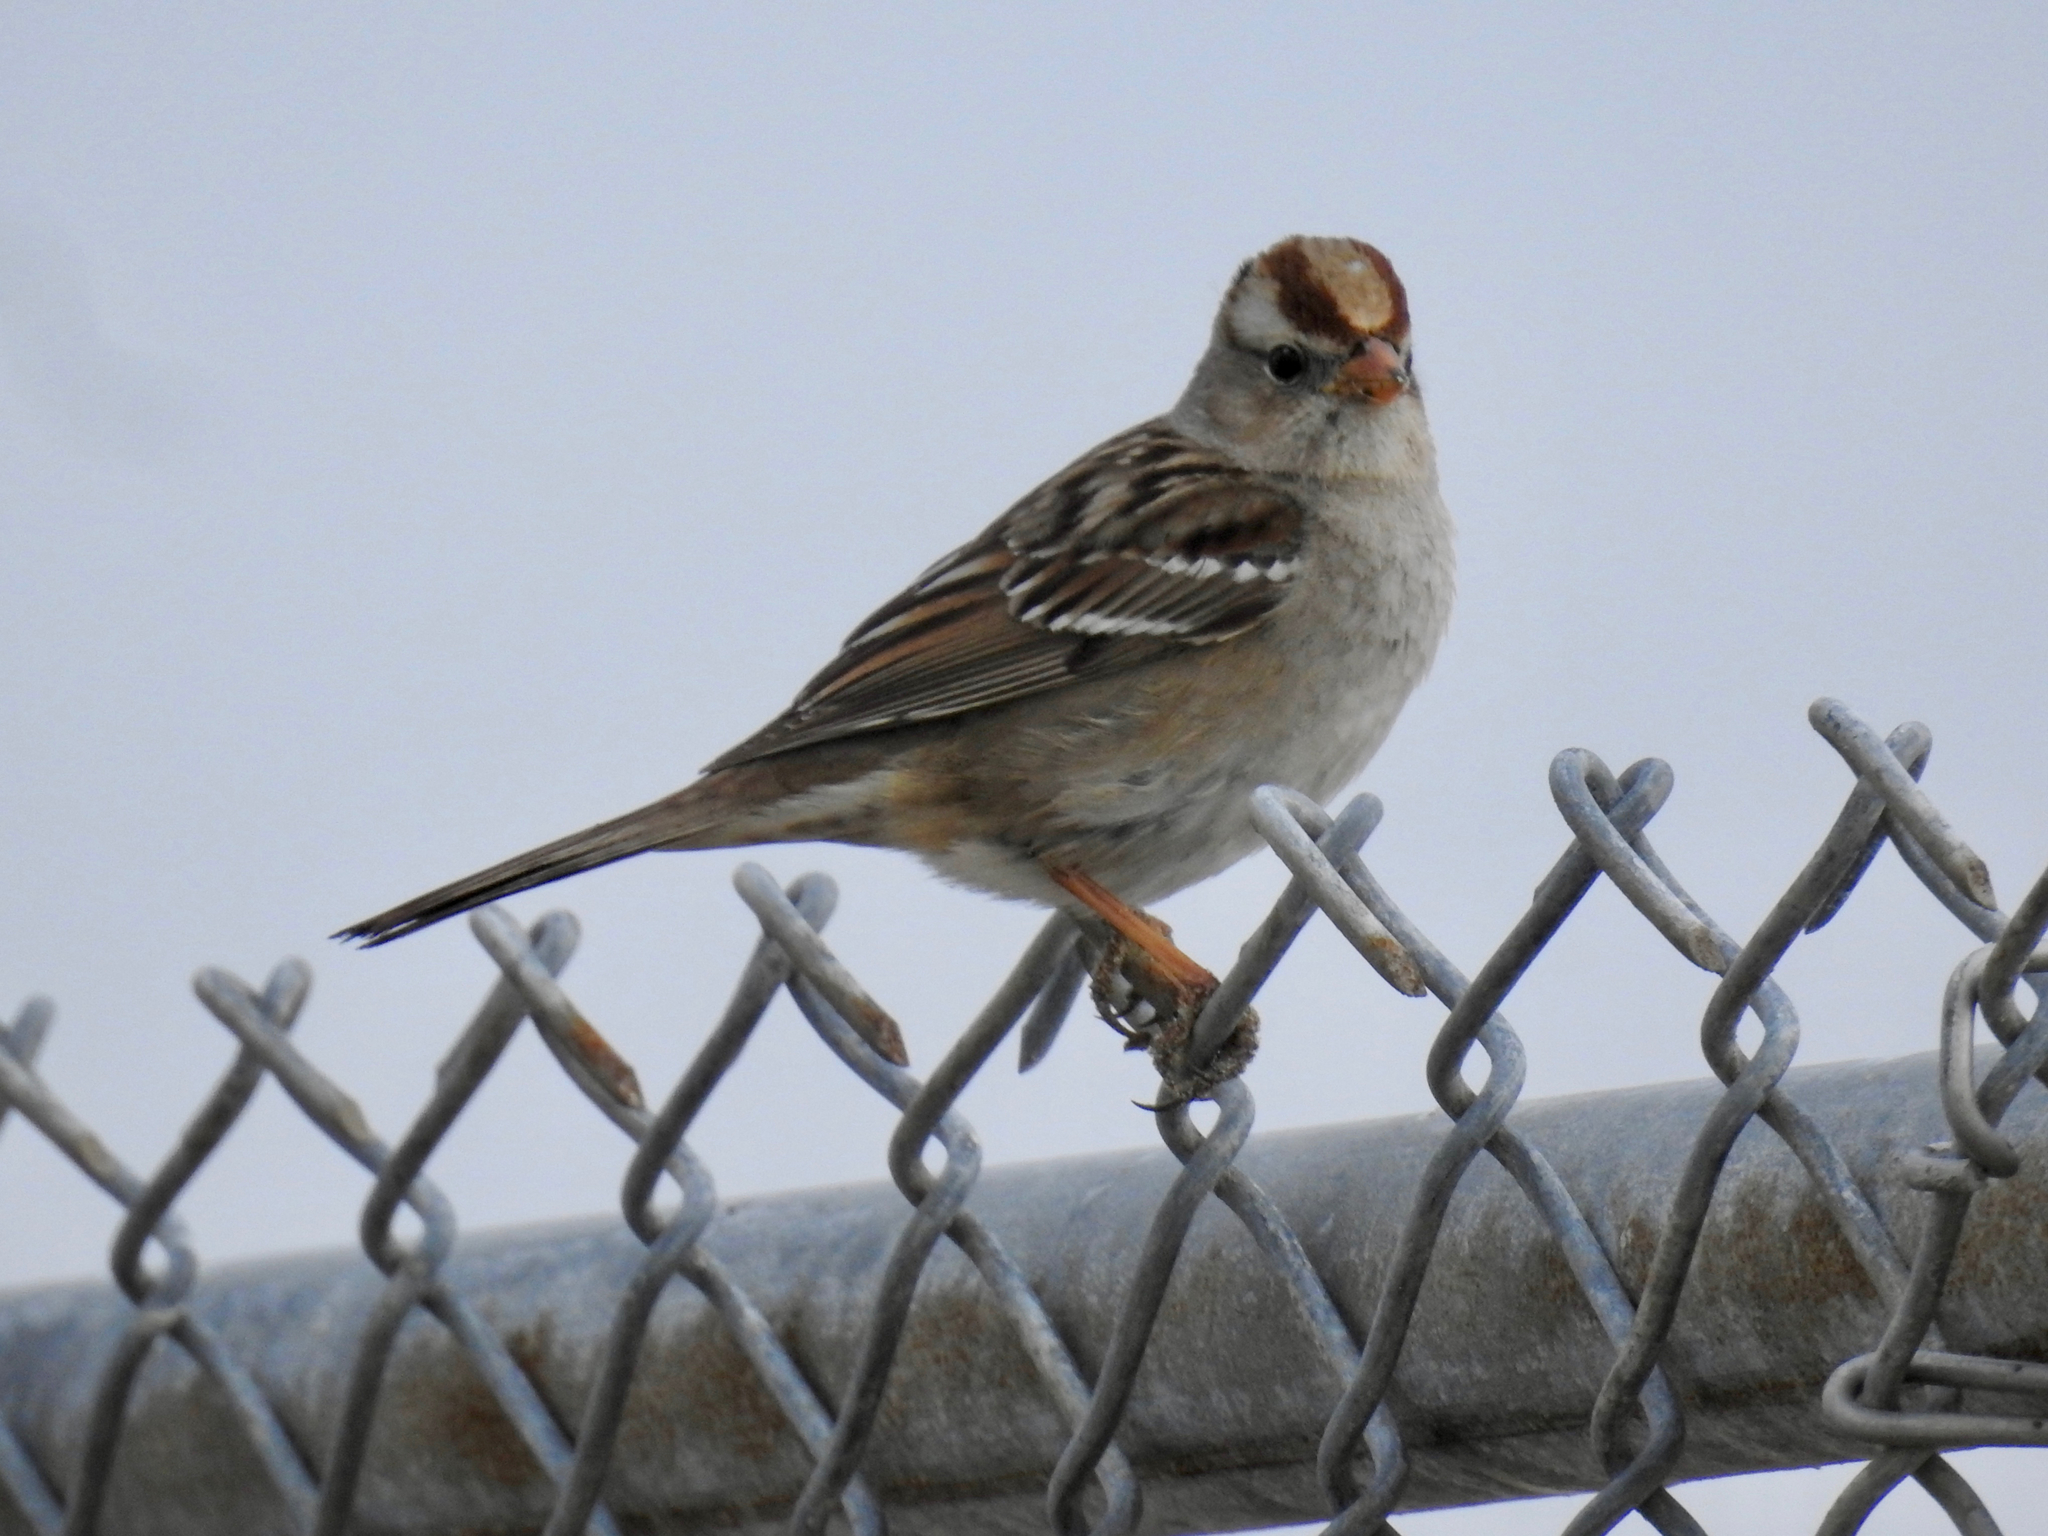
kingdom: Animalia
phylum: Chordata
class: Aves
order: Passeriformes
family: Passerellidae
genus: Zonotrichia
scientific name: Zonotrichia leucophrys
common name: White-crowned sparrow
